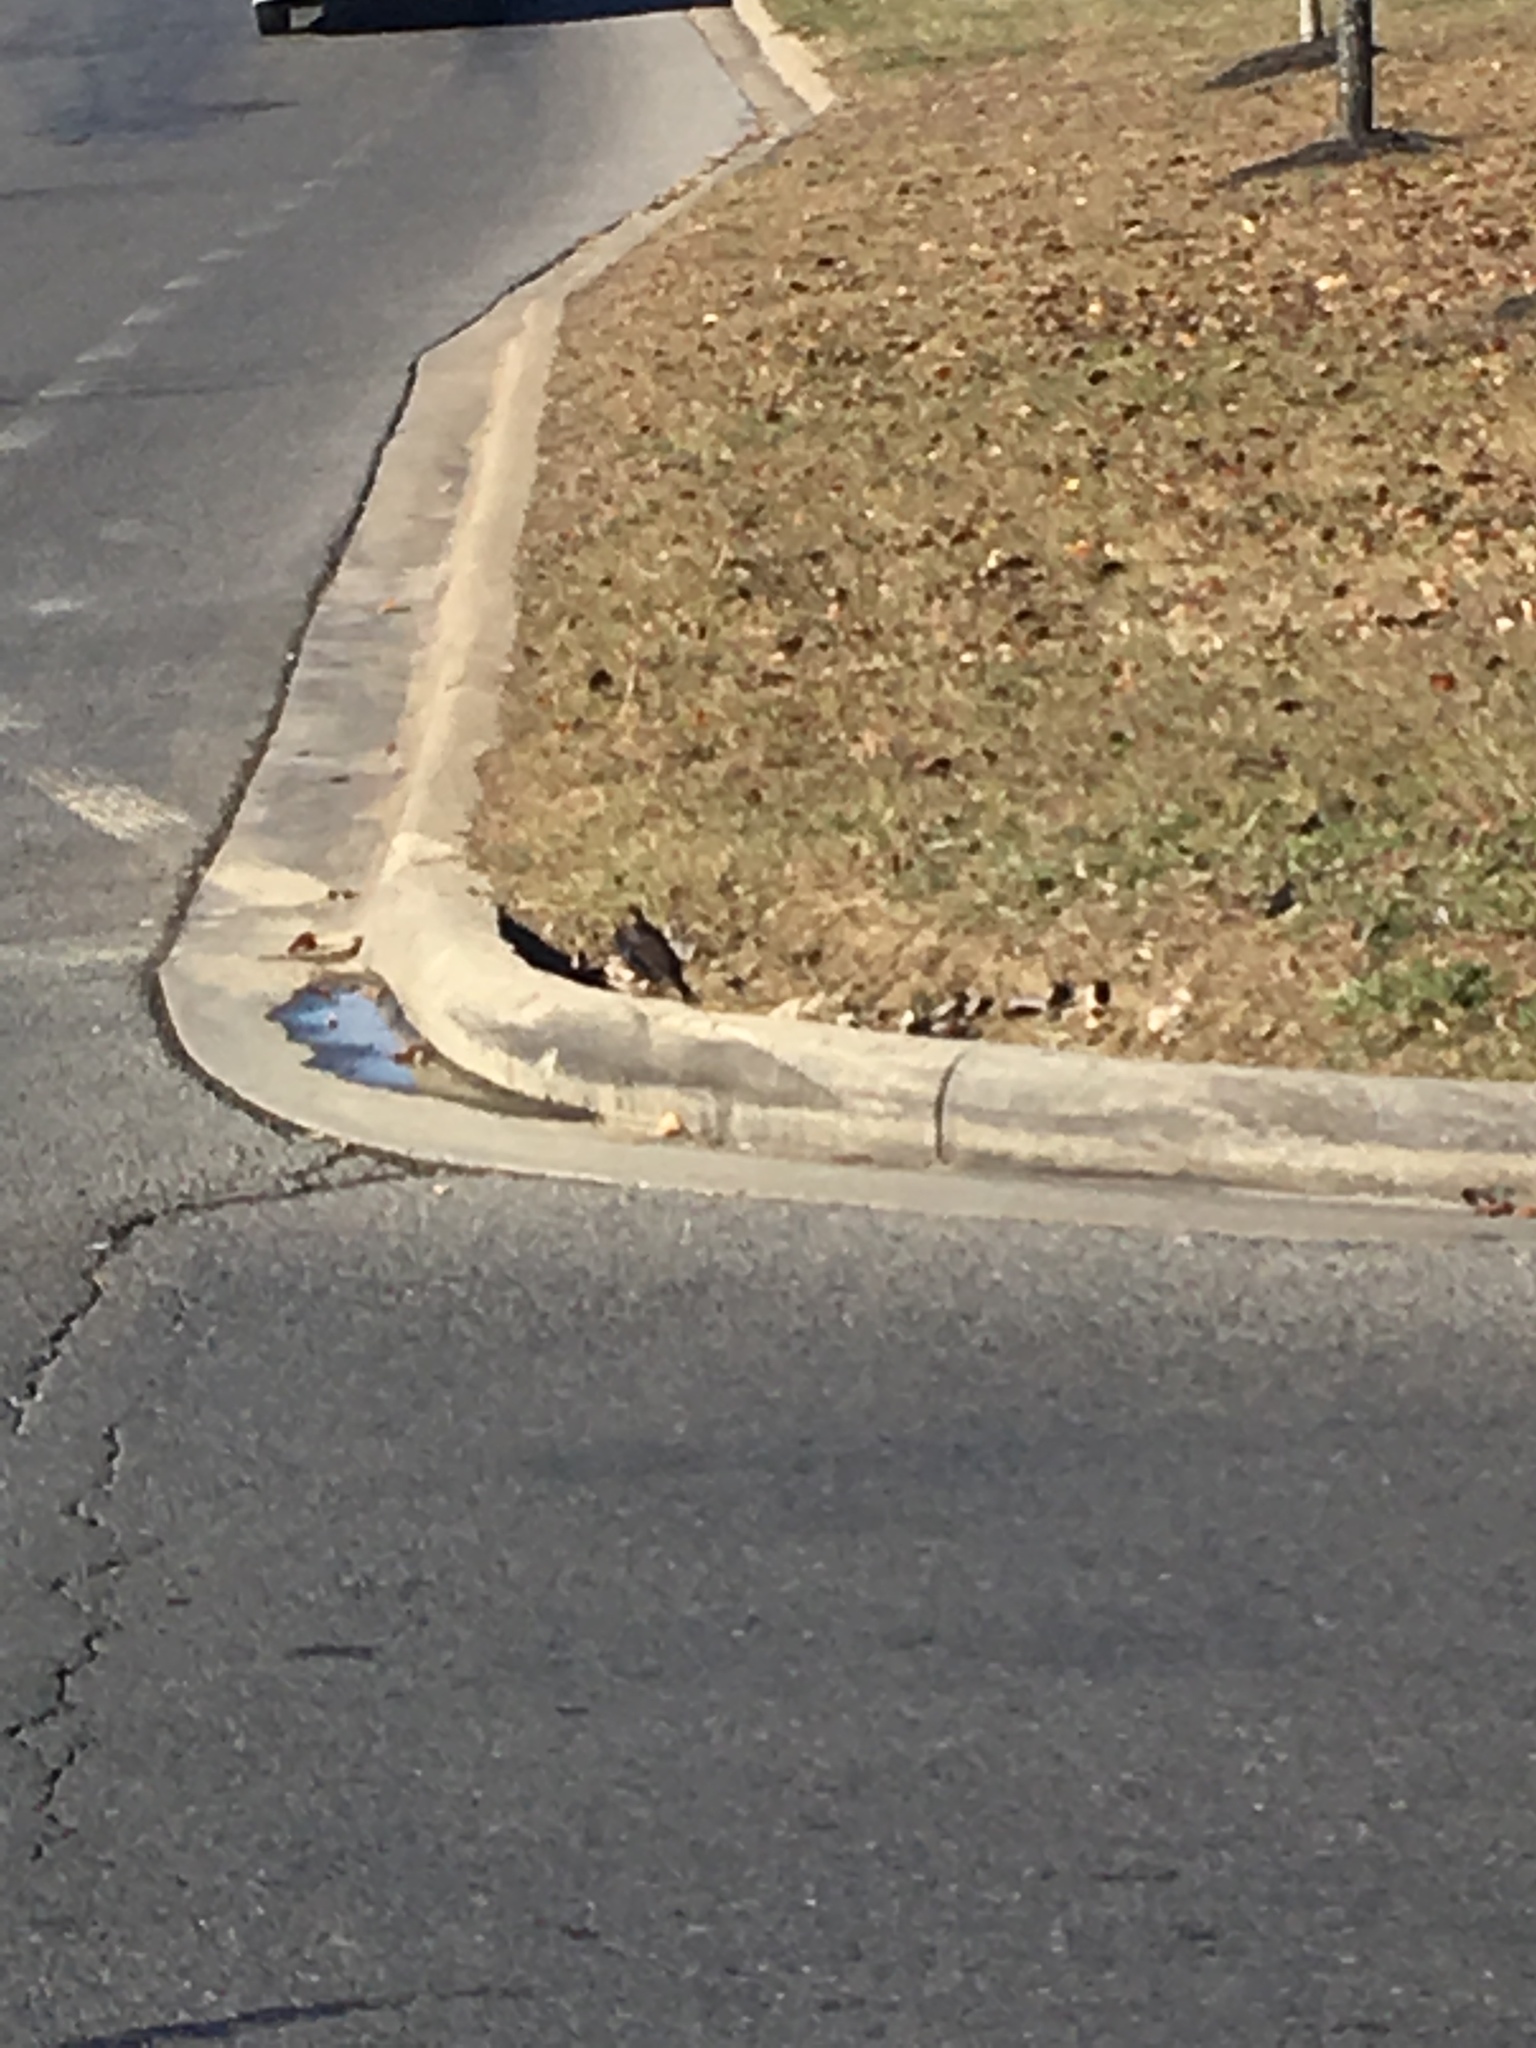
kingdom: Animalia
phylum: Chordata
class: Aves
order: Passeriformes
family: Sturnidae
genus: Sturnus
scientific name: Sturnus vulgaris
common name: Common starling
